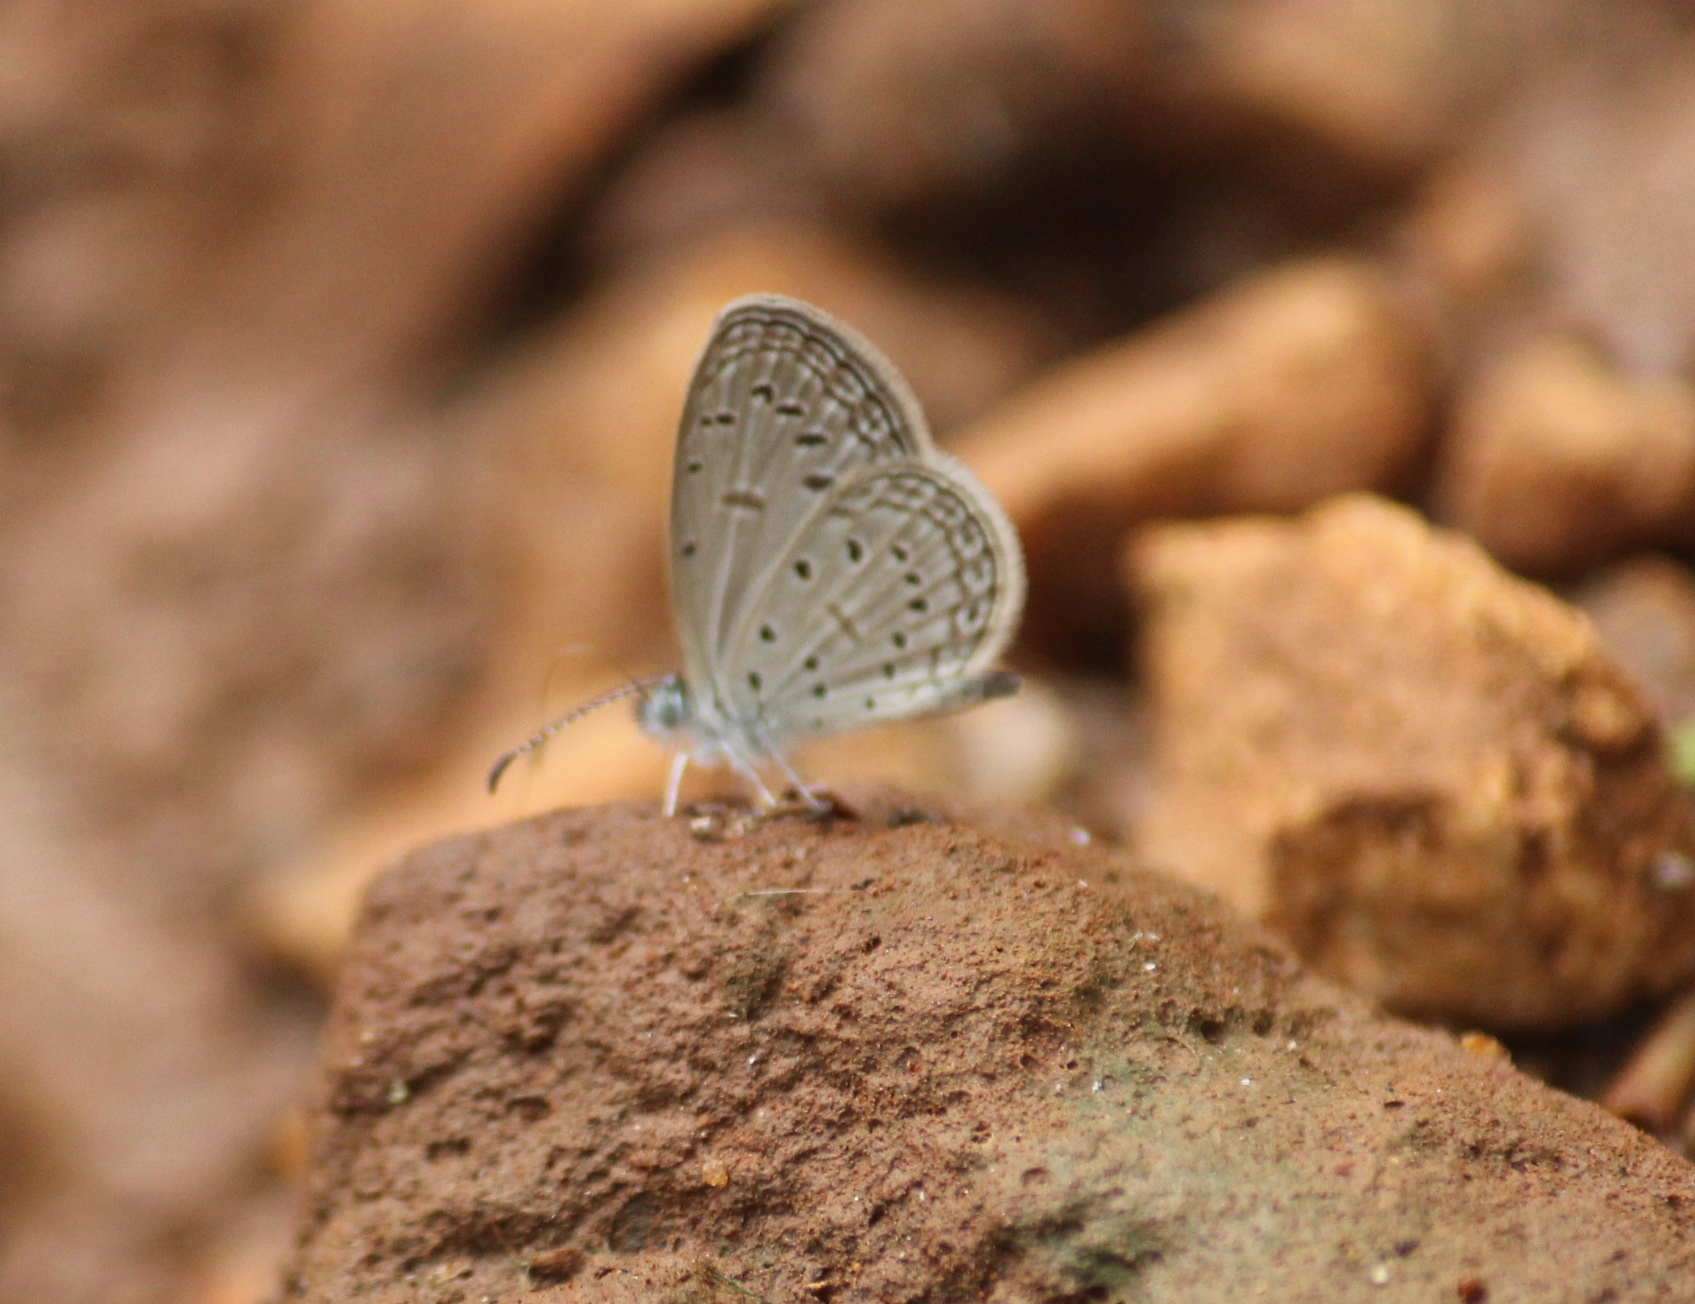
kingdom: Animalia
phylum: Arthropoda
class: Insecta
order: Lepidoptera
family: Lycaenidae
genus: Zizula
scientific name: Zizula hylax
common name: Gaika blue
